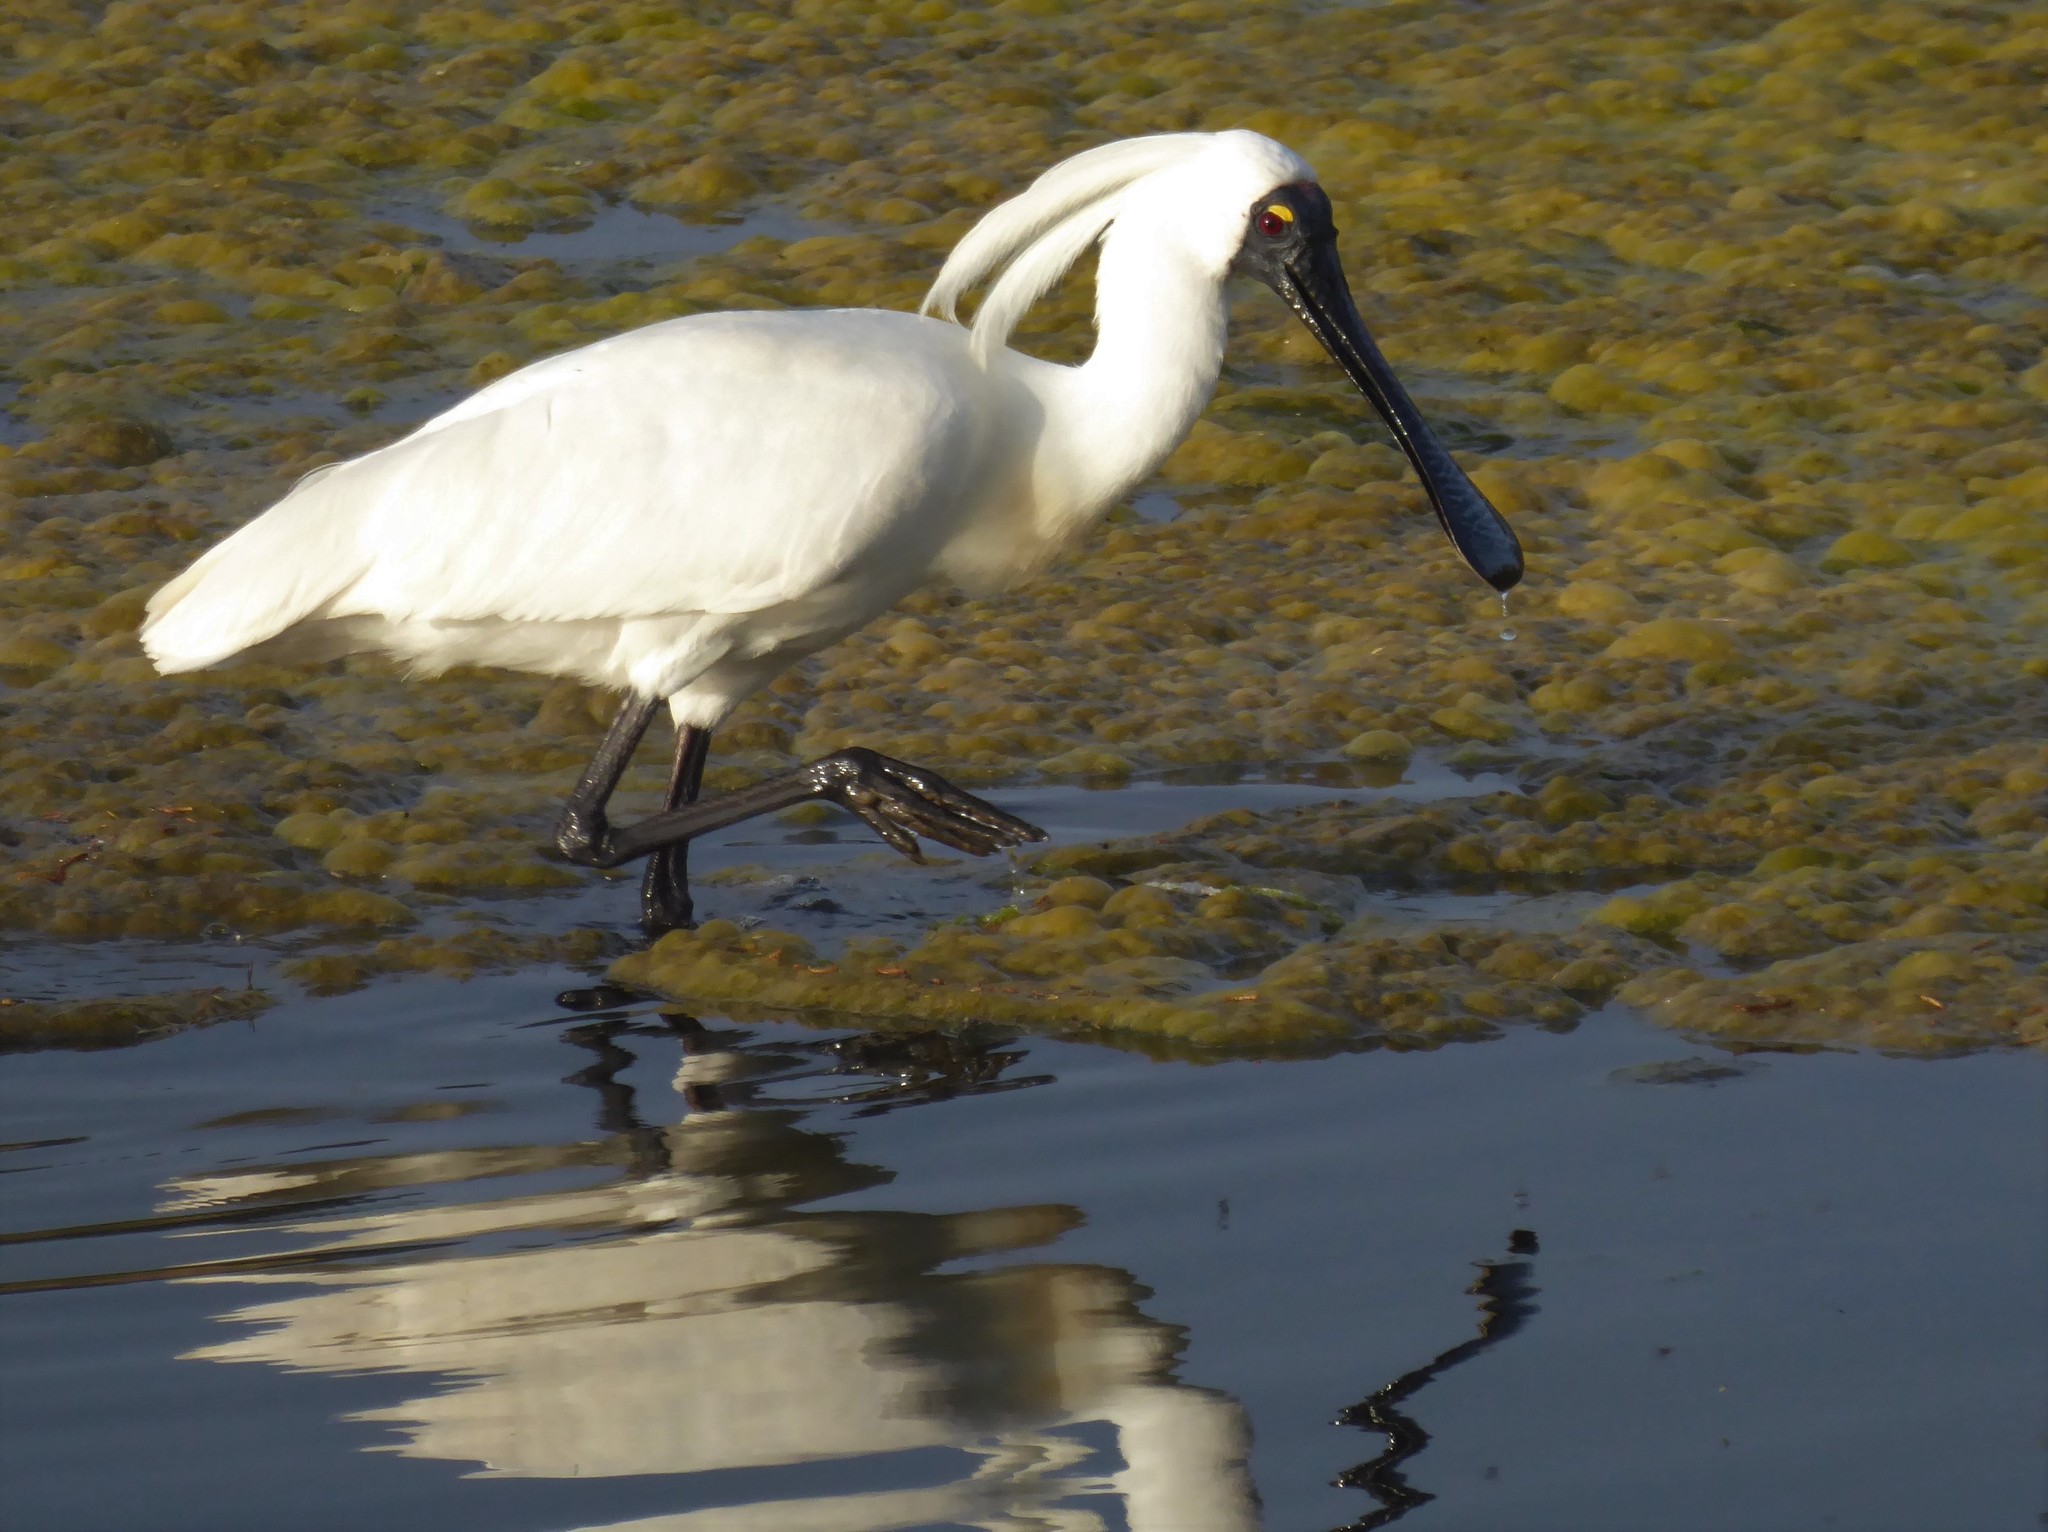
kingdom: Animalia
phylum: Chordata
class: Aves
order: Pelecaniformes
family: Threskiornithidae
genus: Platalea
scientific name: Platalea regia
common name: Royal spoonbill
